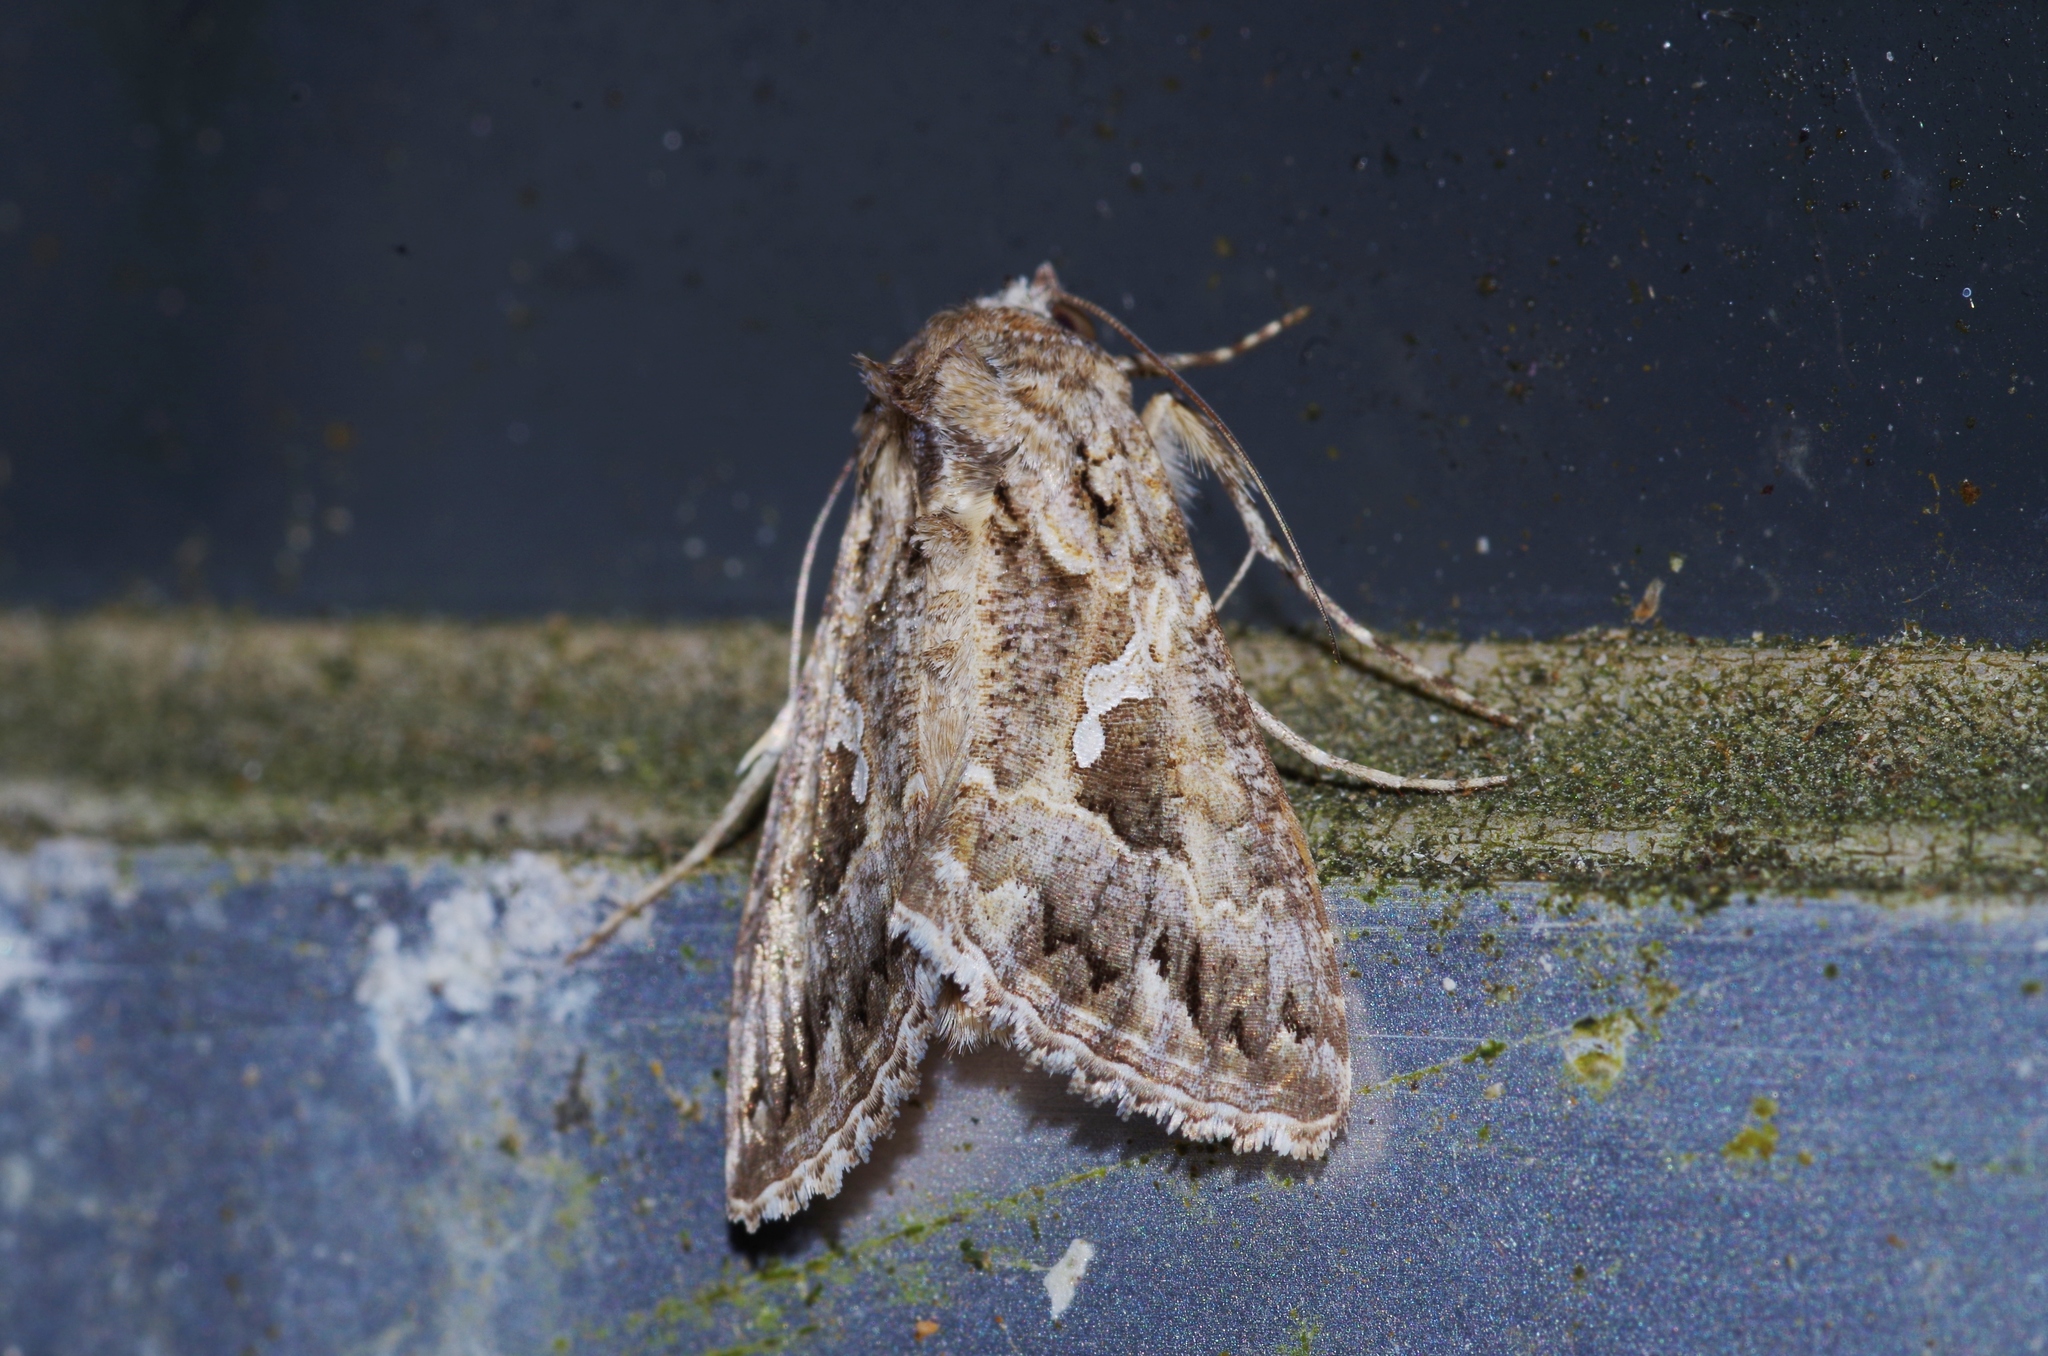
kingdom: Animalia
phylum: Arthropoda
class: Insecta
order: Lepidoptera
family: Noctuidae
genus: Trichoplusia
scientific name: Trichoplusia ni
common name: Ni moth
